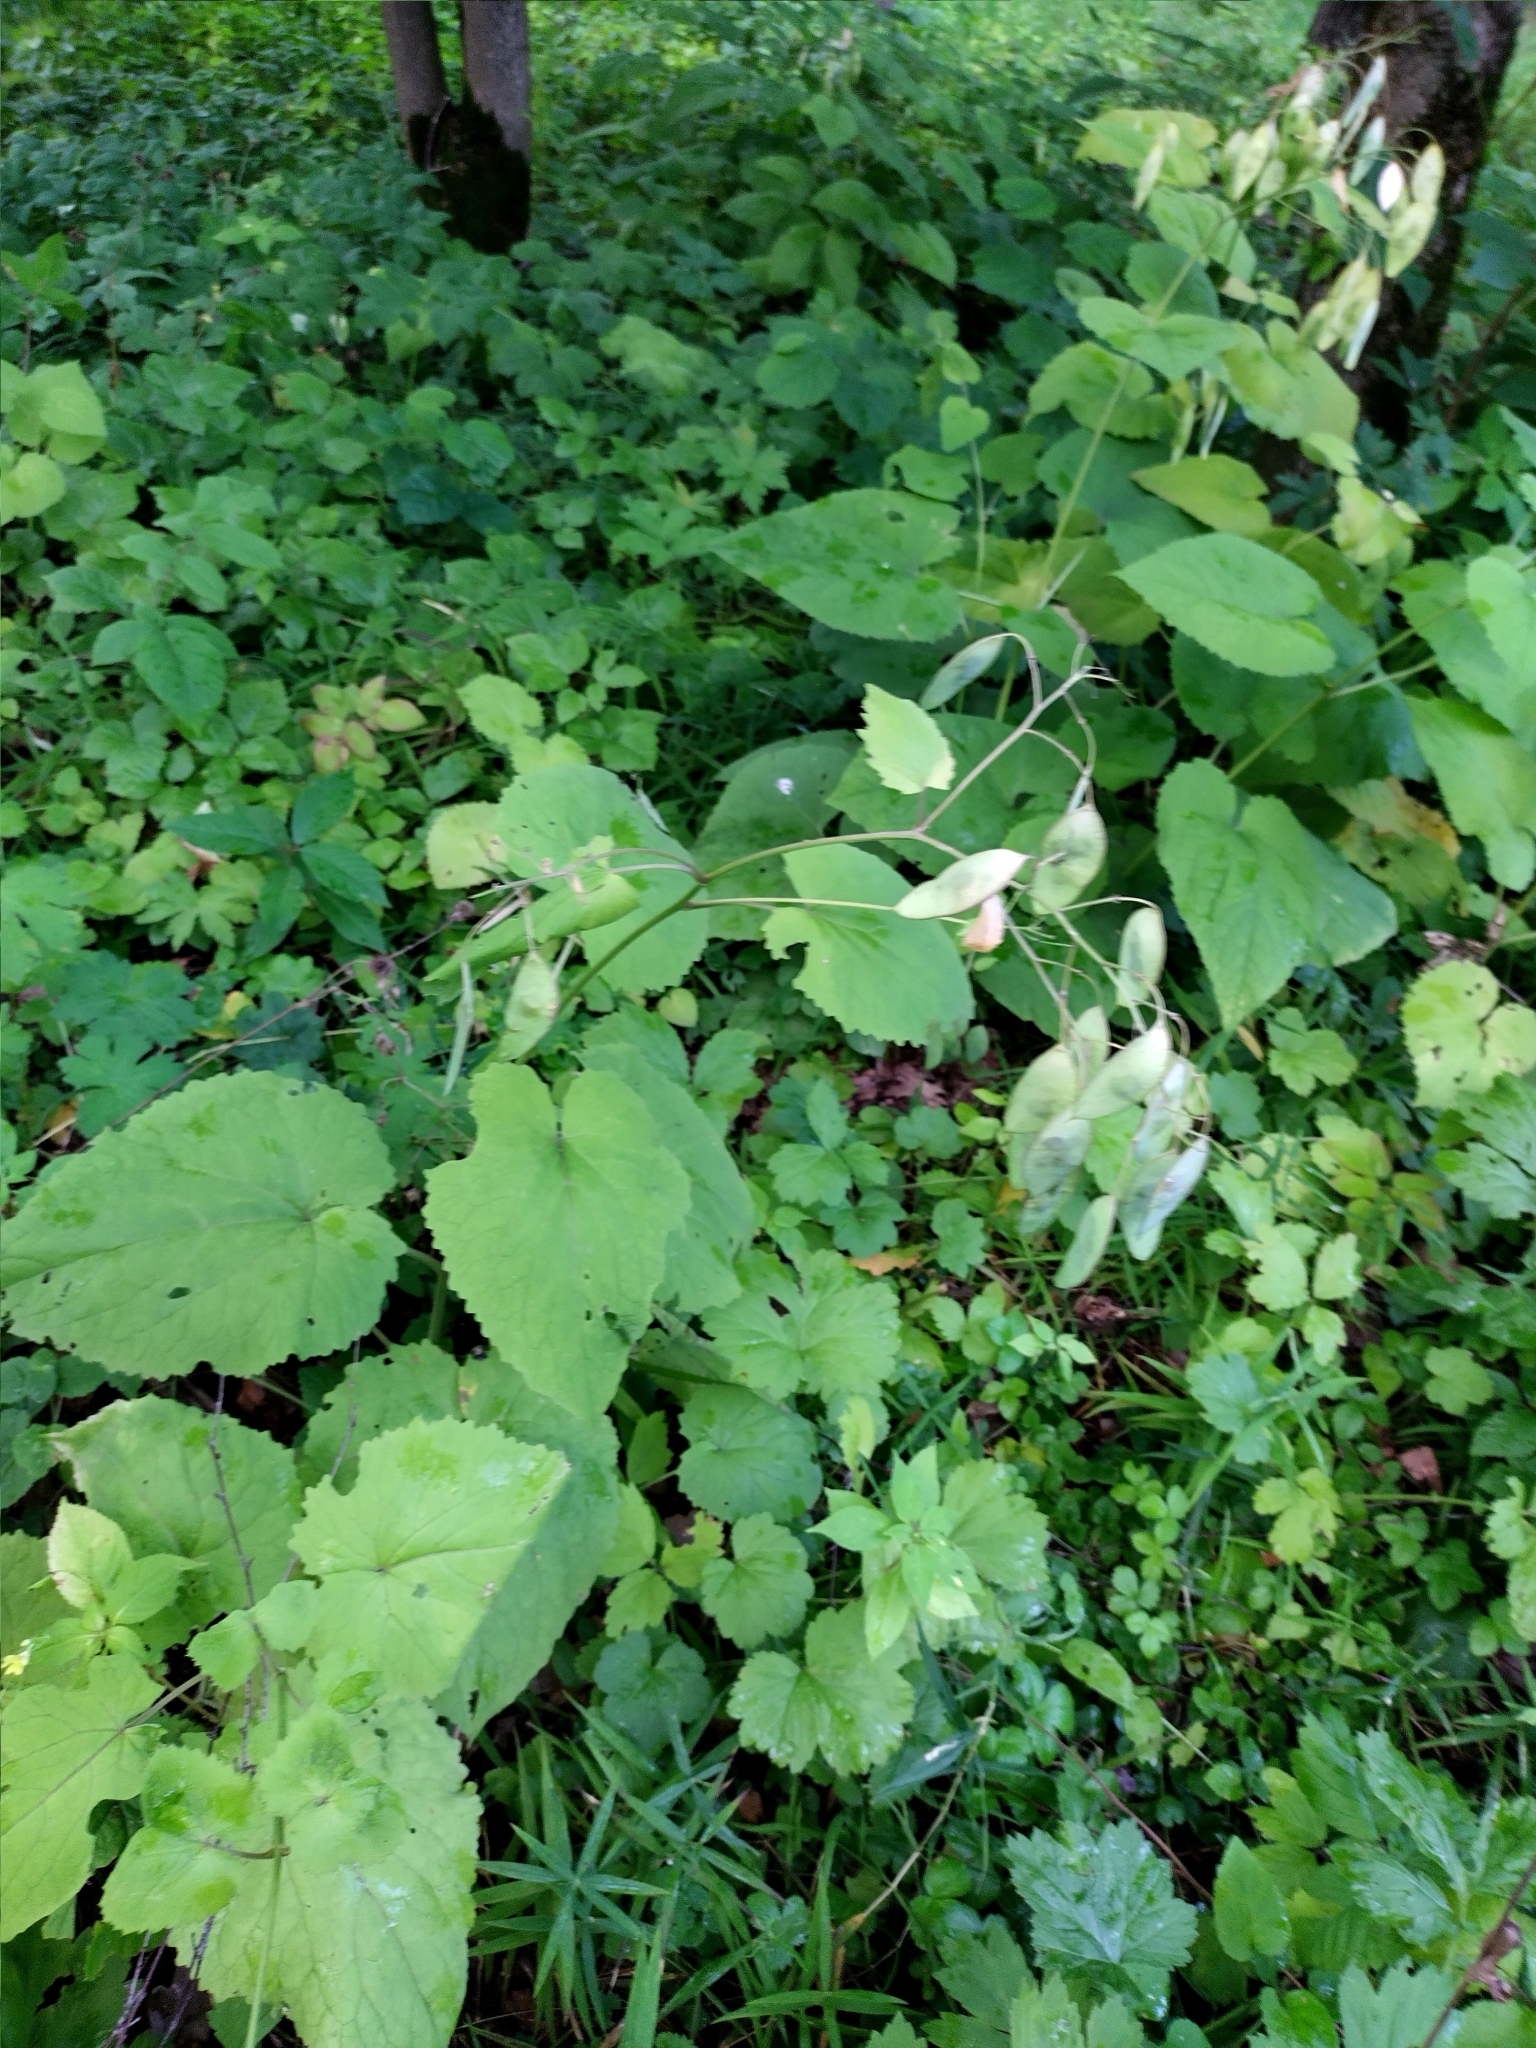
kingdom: Plantae
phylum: Tracheophyta
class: Magnoliopsida
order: Brassicales
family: Brassicaceae
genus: Lunaria
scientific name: Lunaria rediviva
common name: Perennial honesty
